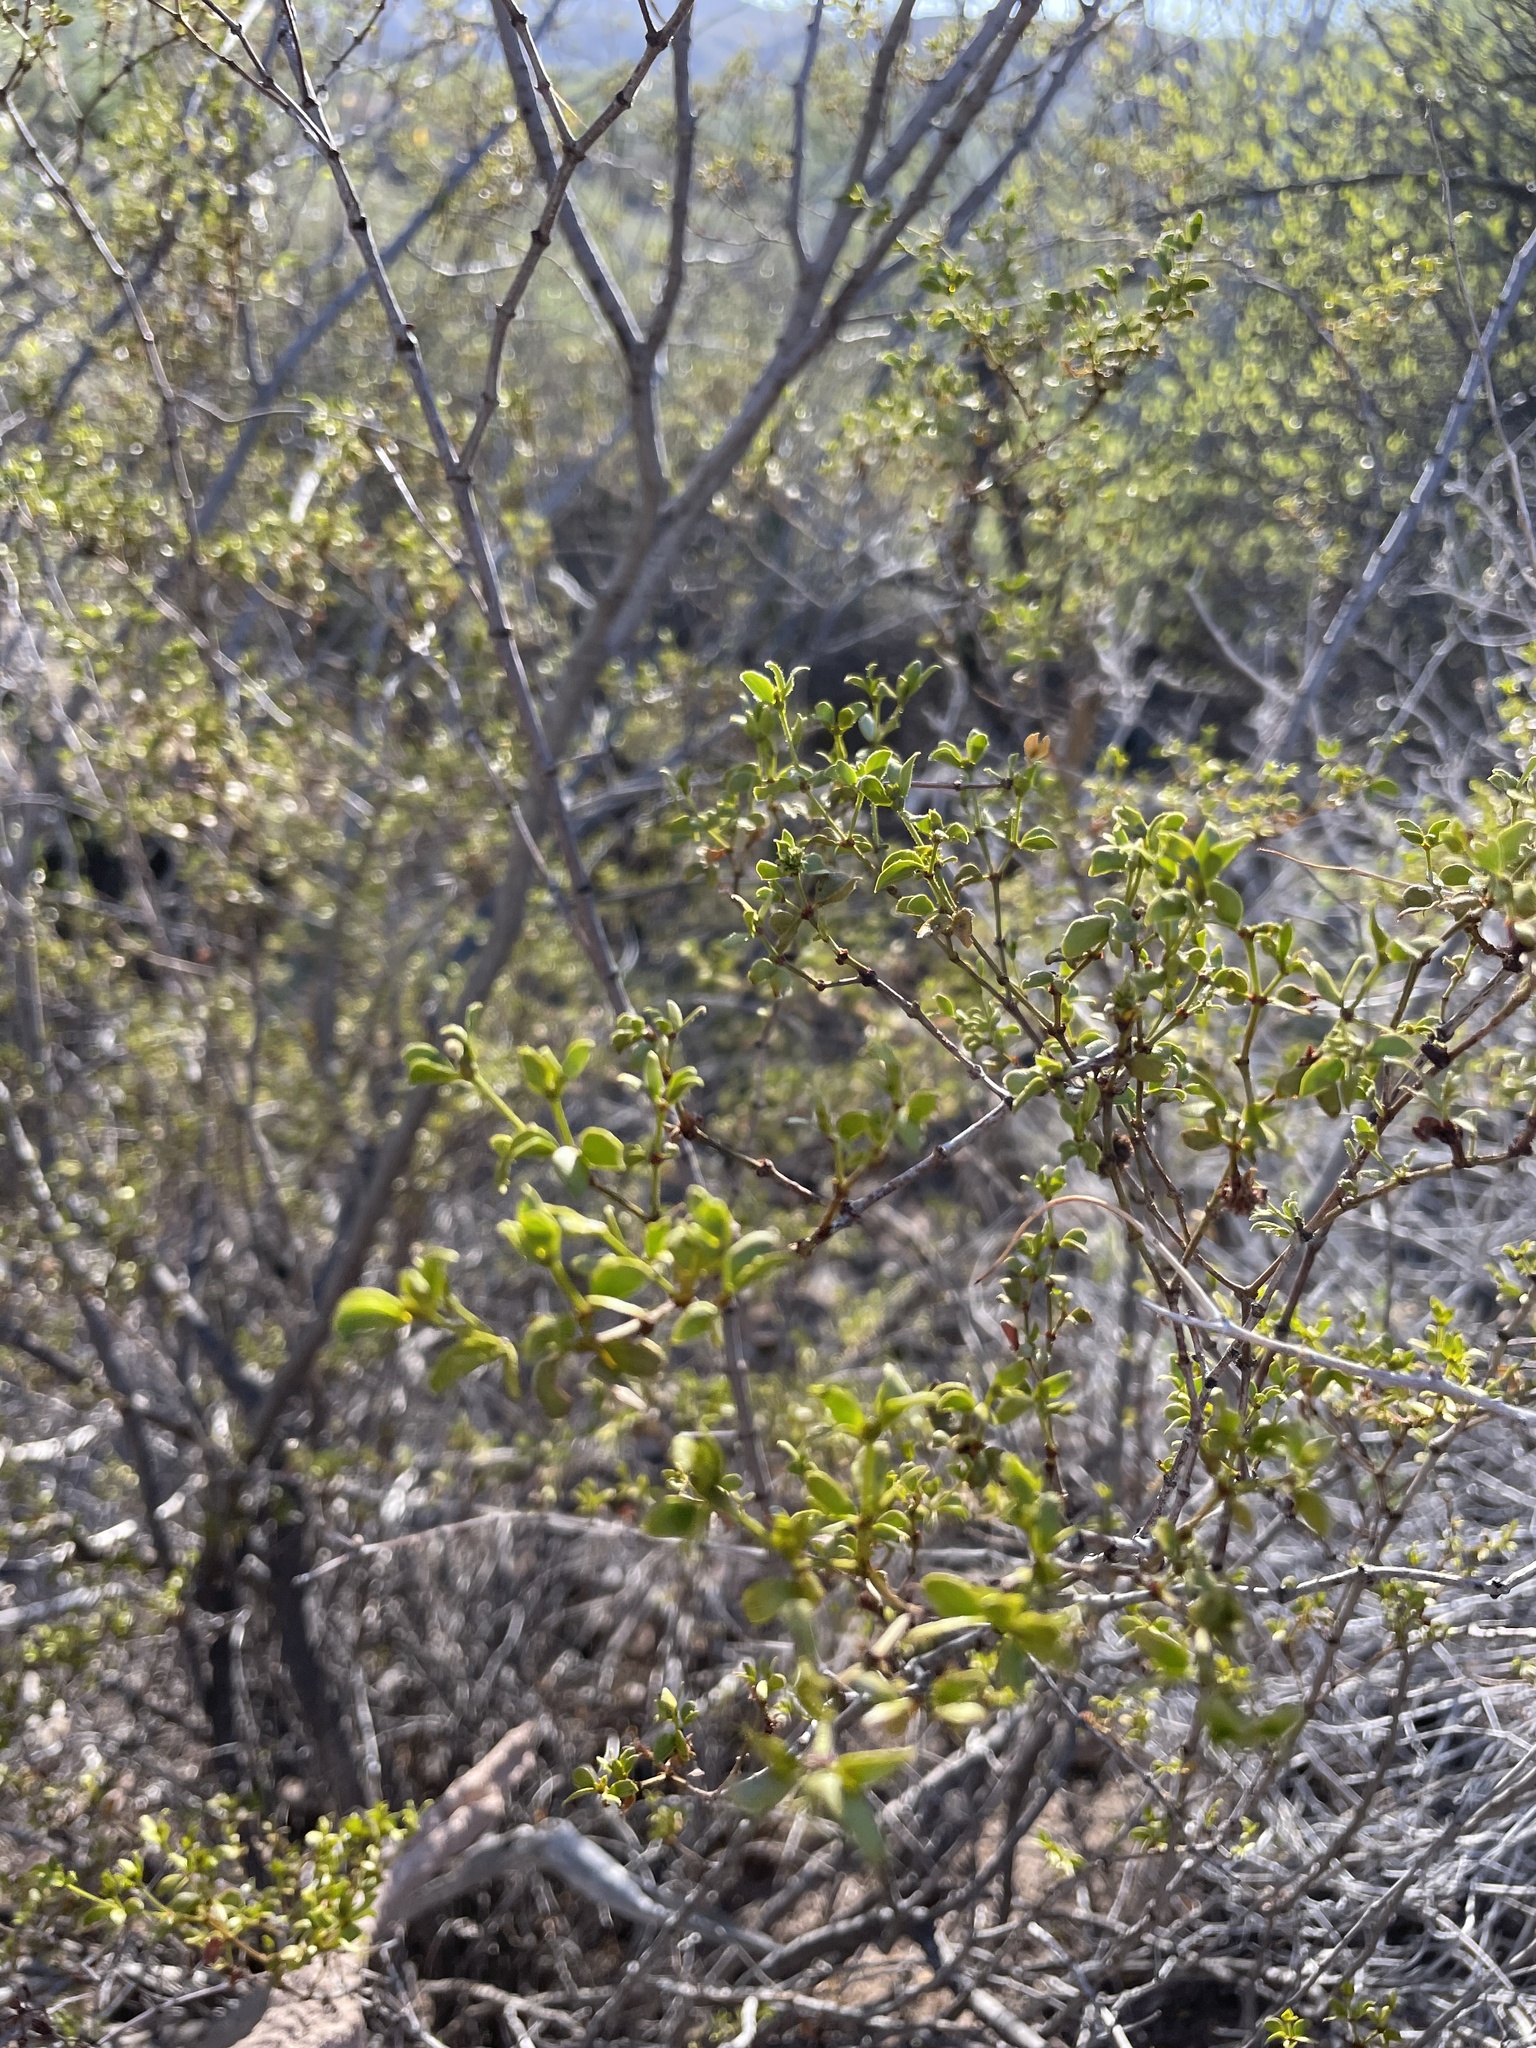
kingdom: Plantae
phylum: Tracheophyta
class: Magnoliopsida
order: Zygophyllales
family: Zygophyllaceae
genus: Larrea
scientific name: Larrea tridentata
